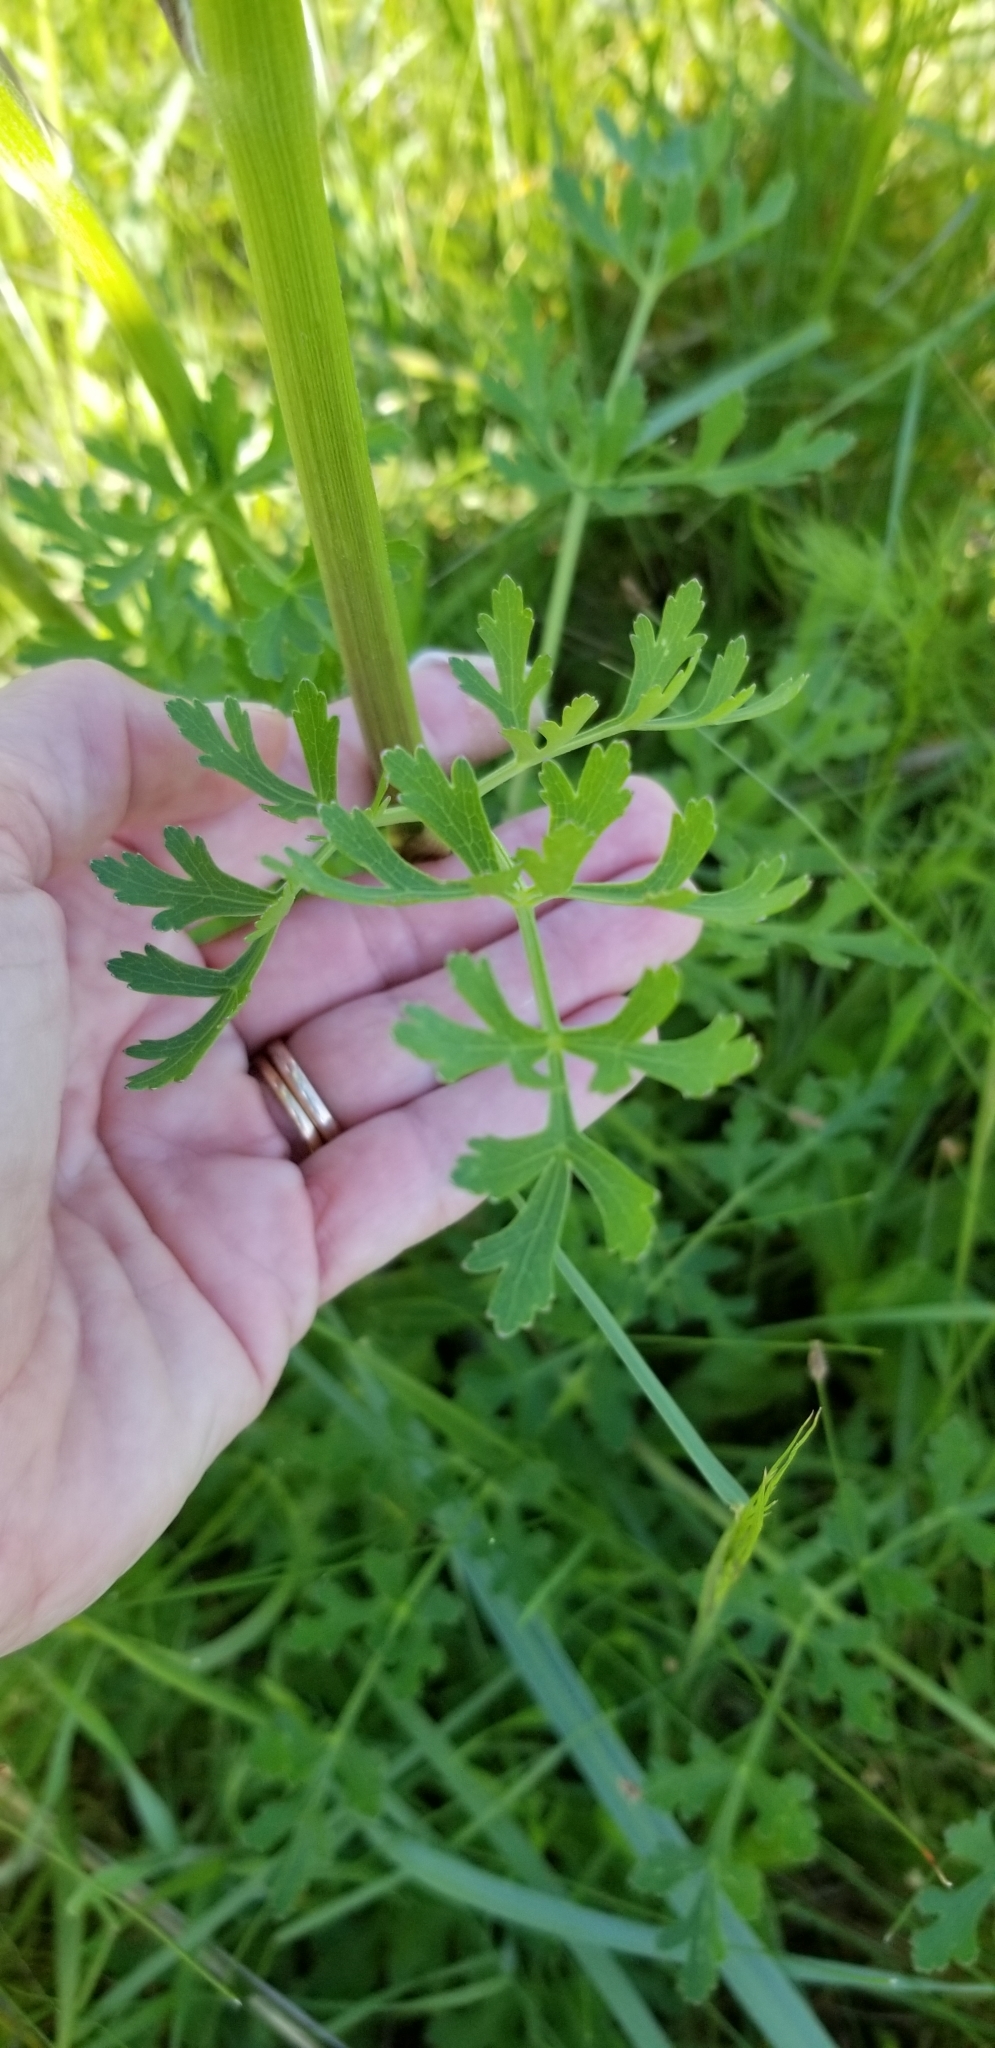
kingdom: Plantae
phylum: Tracheophyta
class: Magnoliopsida
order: Apiales
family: Apiaceae
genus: Polytaenia
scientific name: Polytaenia texana
